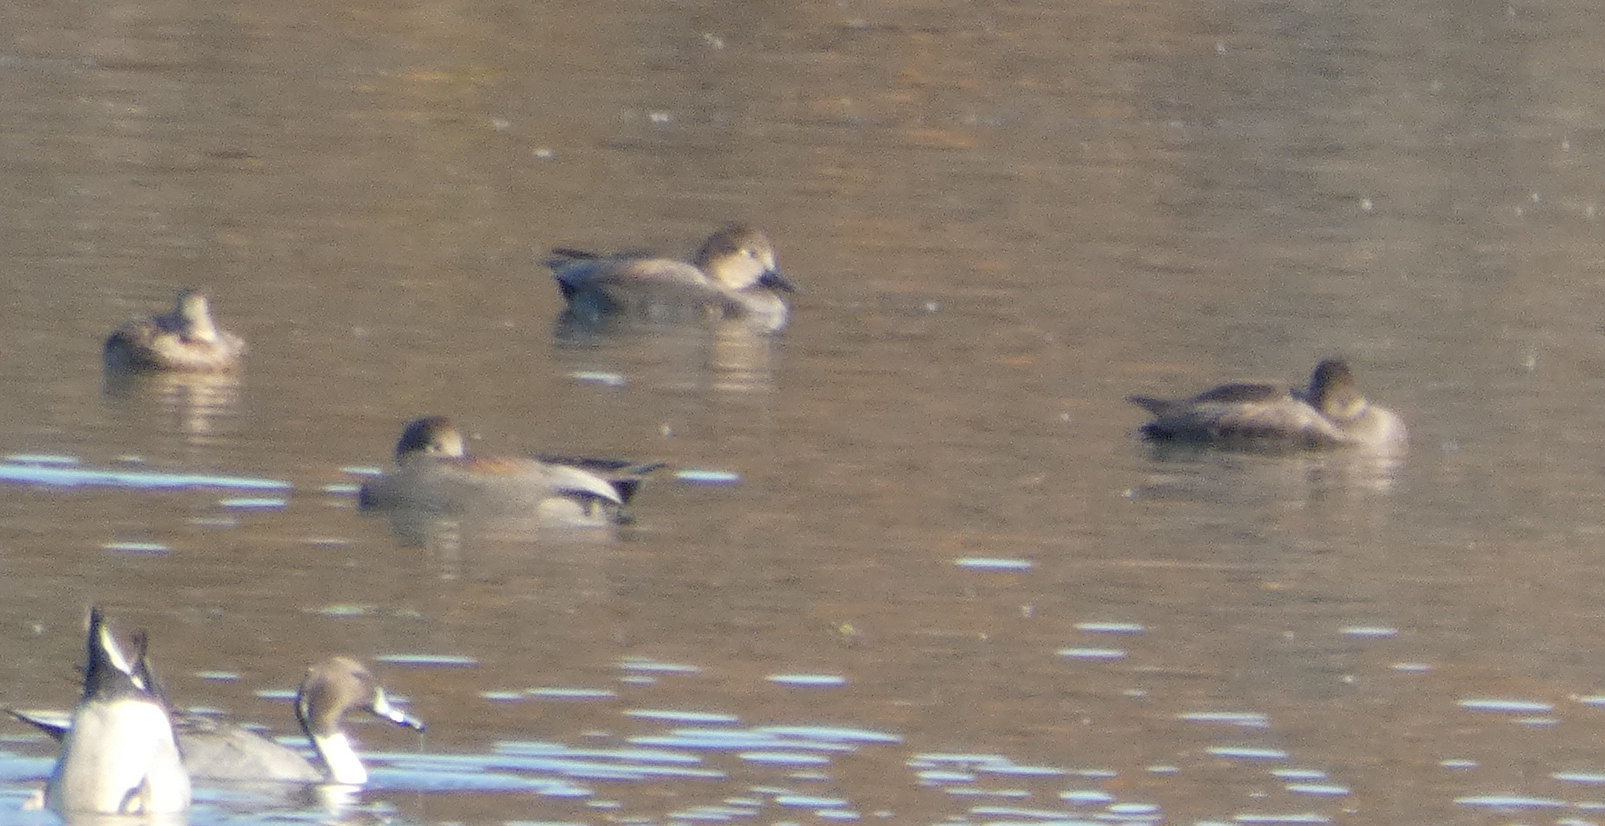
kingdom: Animalia
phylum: Chordata
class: Aves
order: Anseriformes
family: Anatidae
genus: Mareca
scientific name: Mareca strepera
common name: Gadwall
